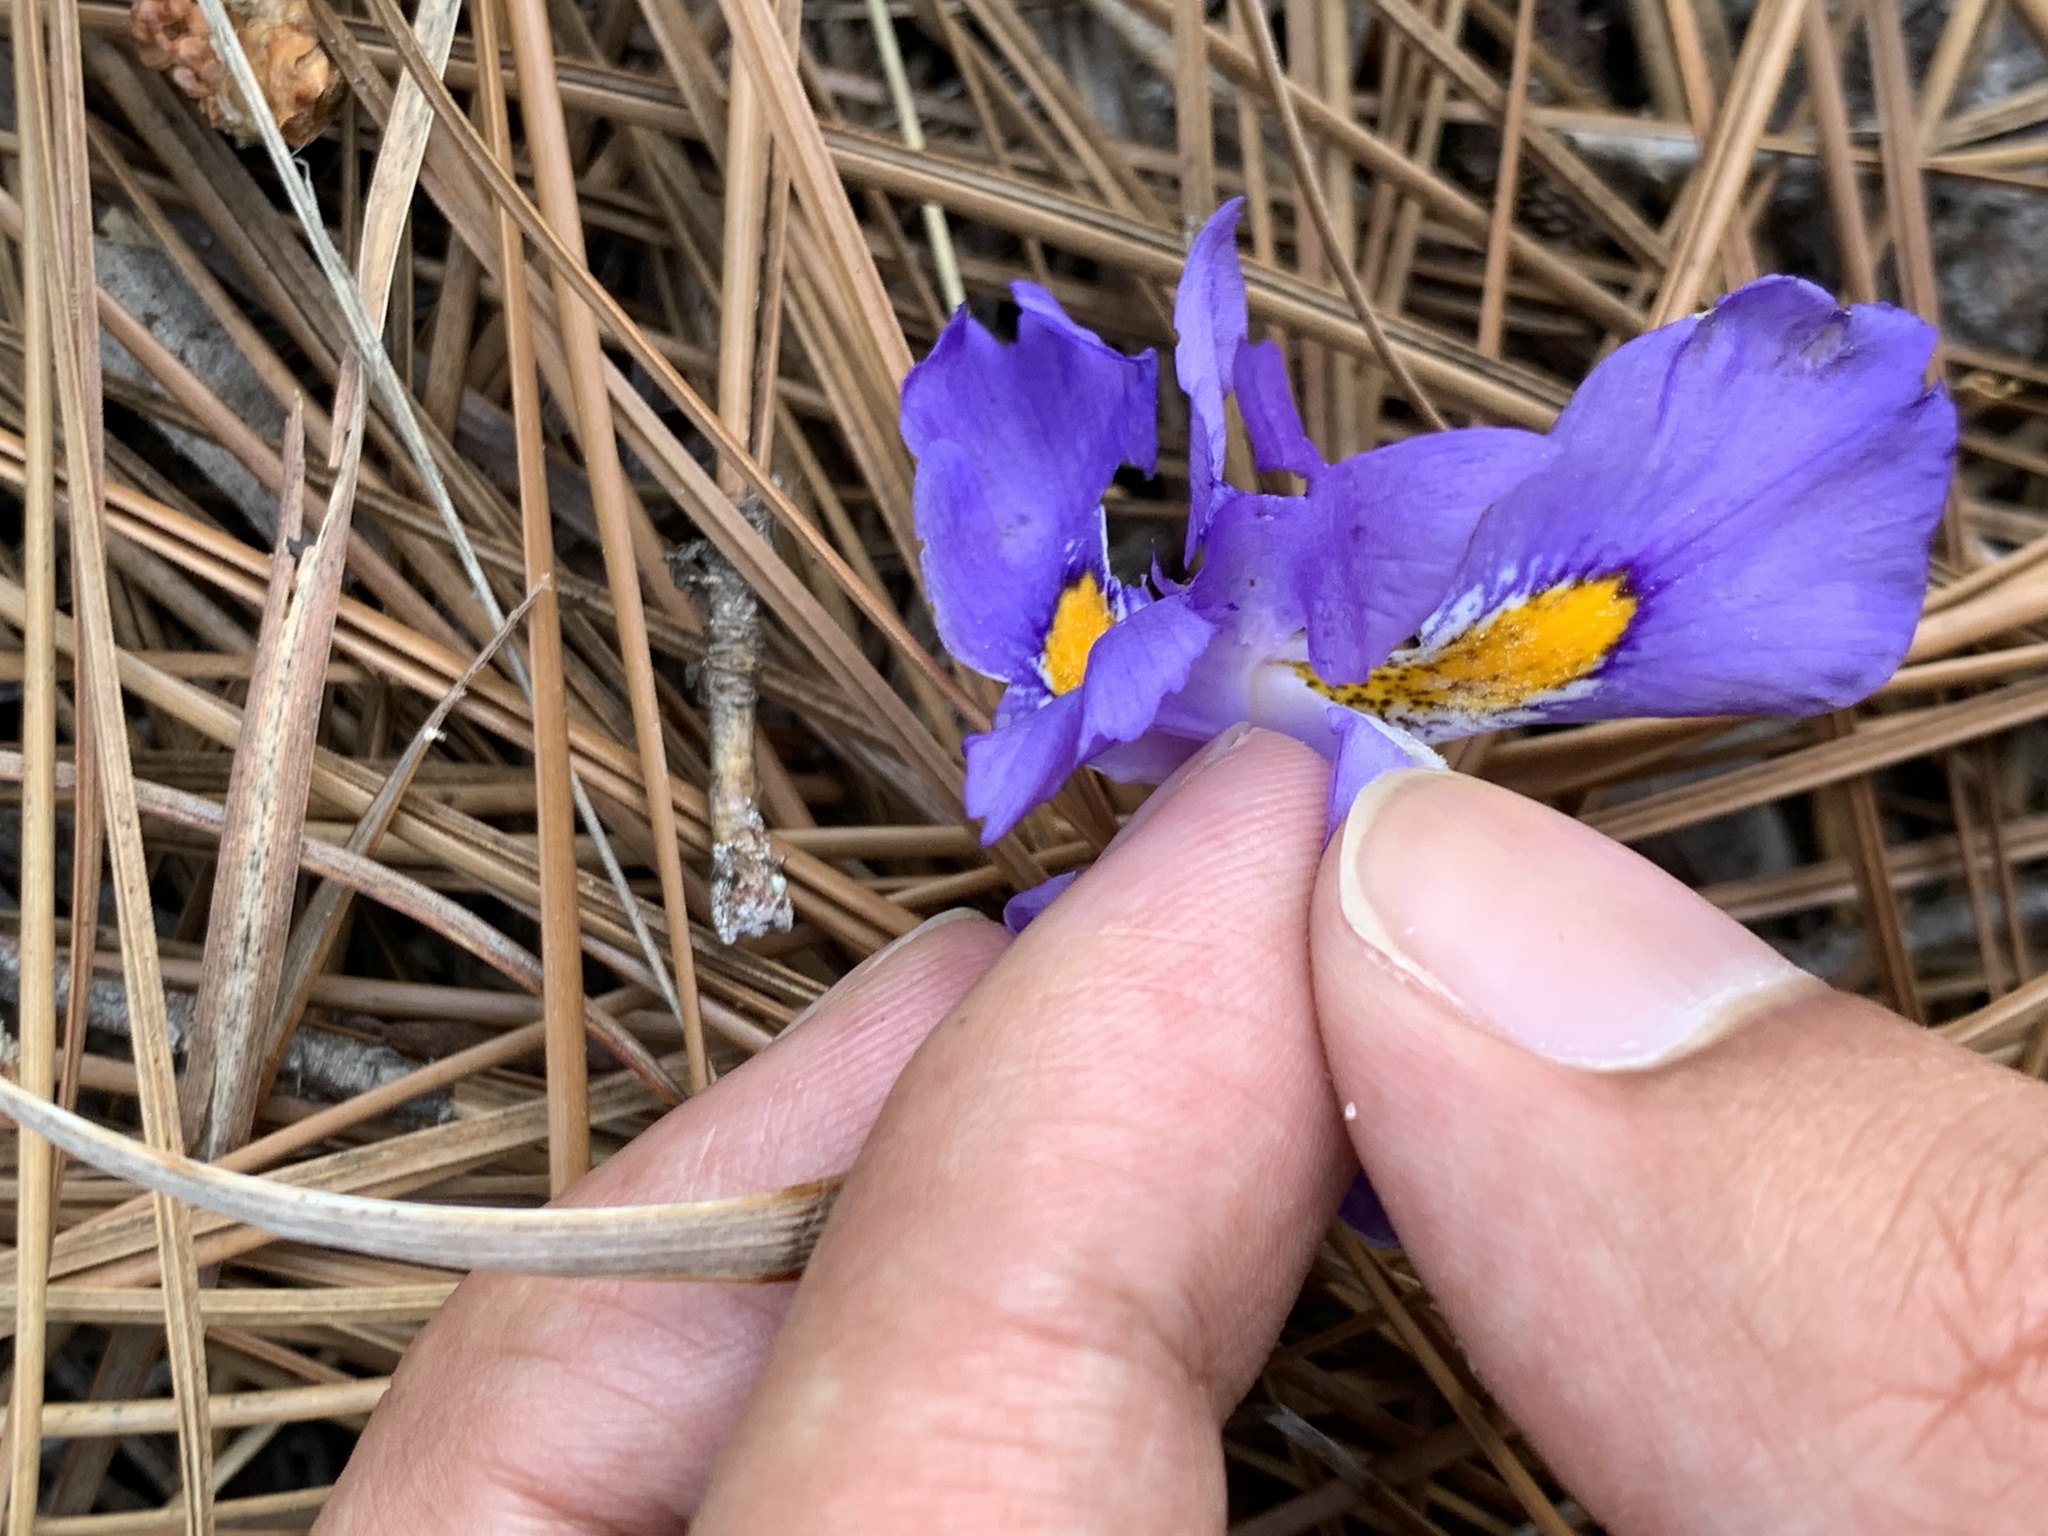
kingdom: Plantae
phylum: Tracheophyta
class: Liliopsida
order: Asparagales
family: Iridaceae
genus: Iris
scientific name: Iris verna
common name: Dwarf iris
